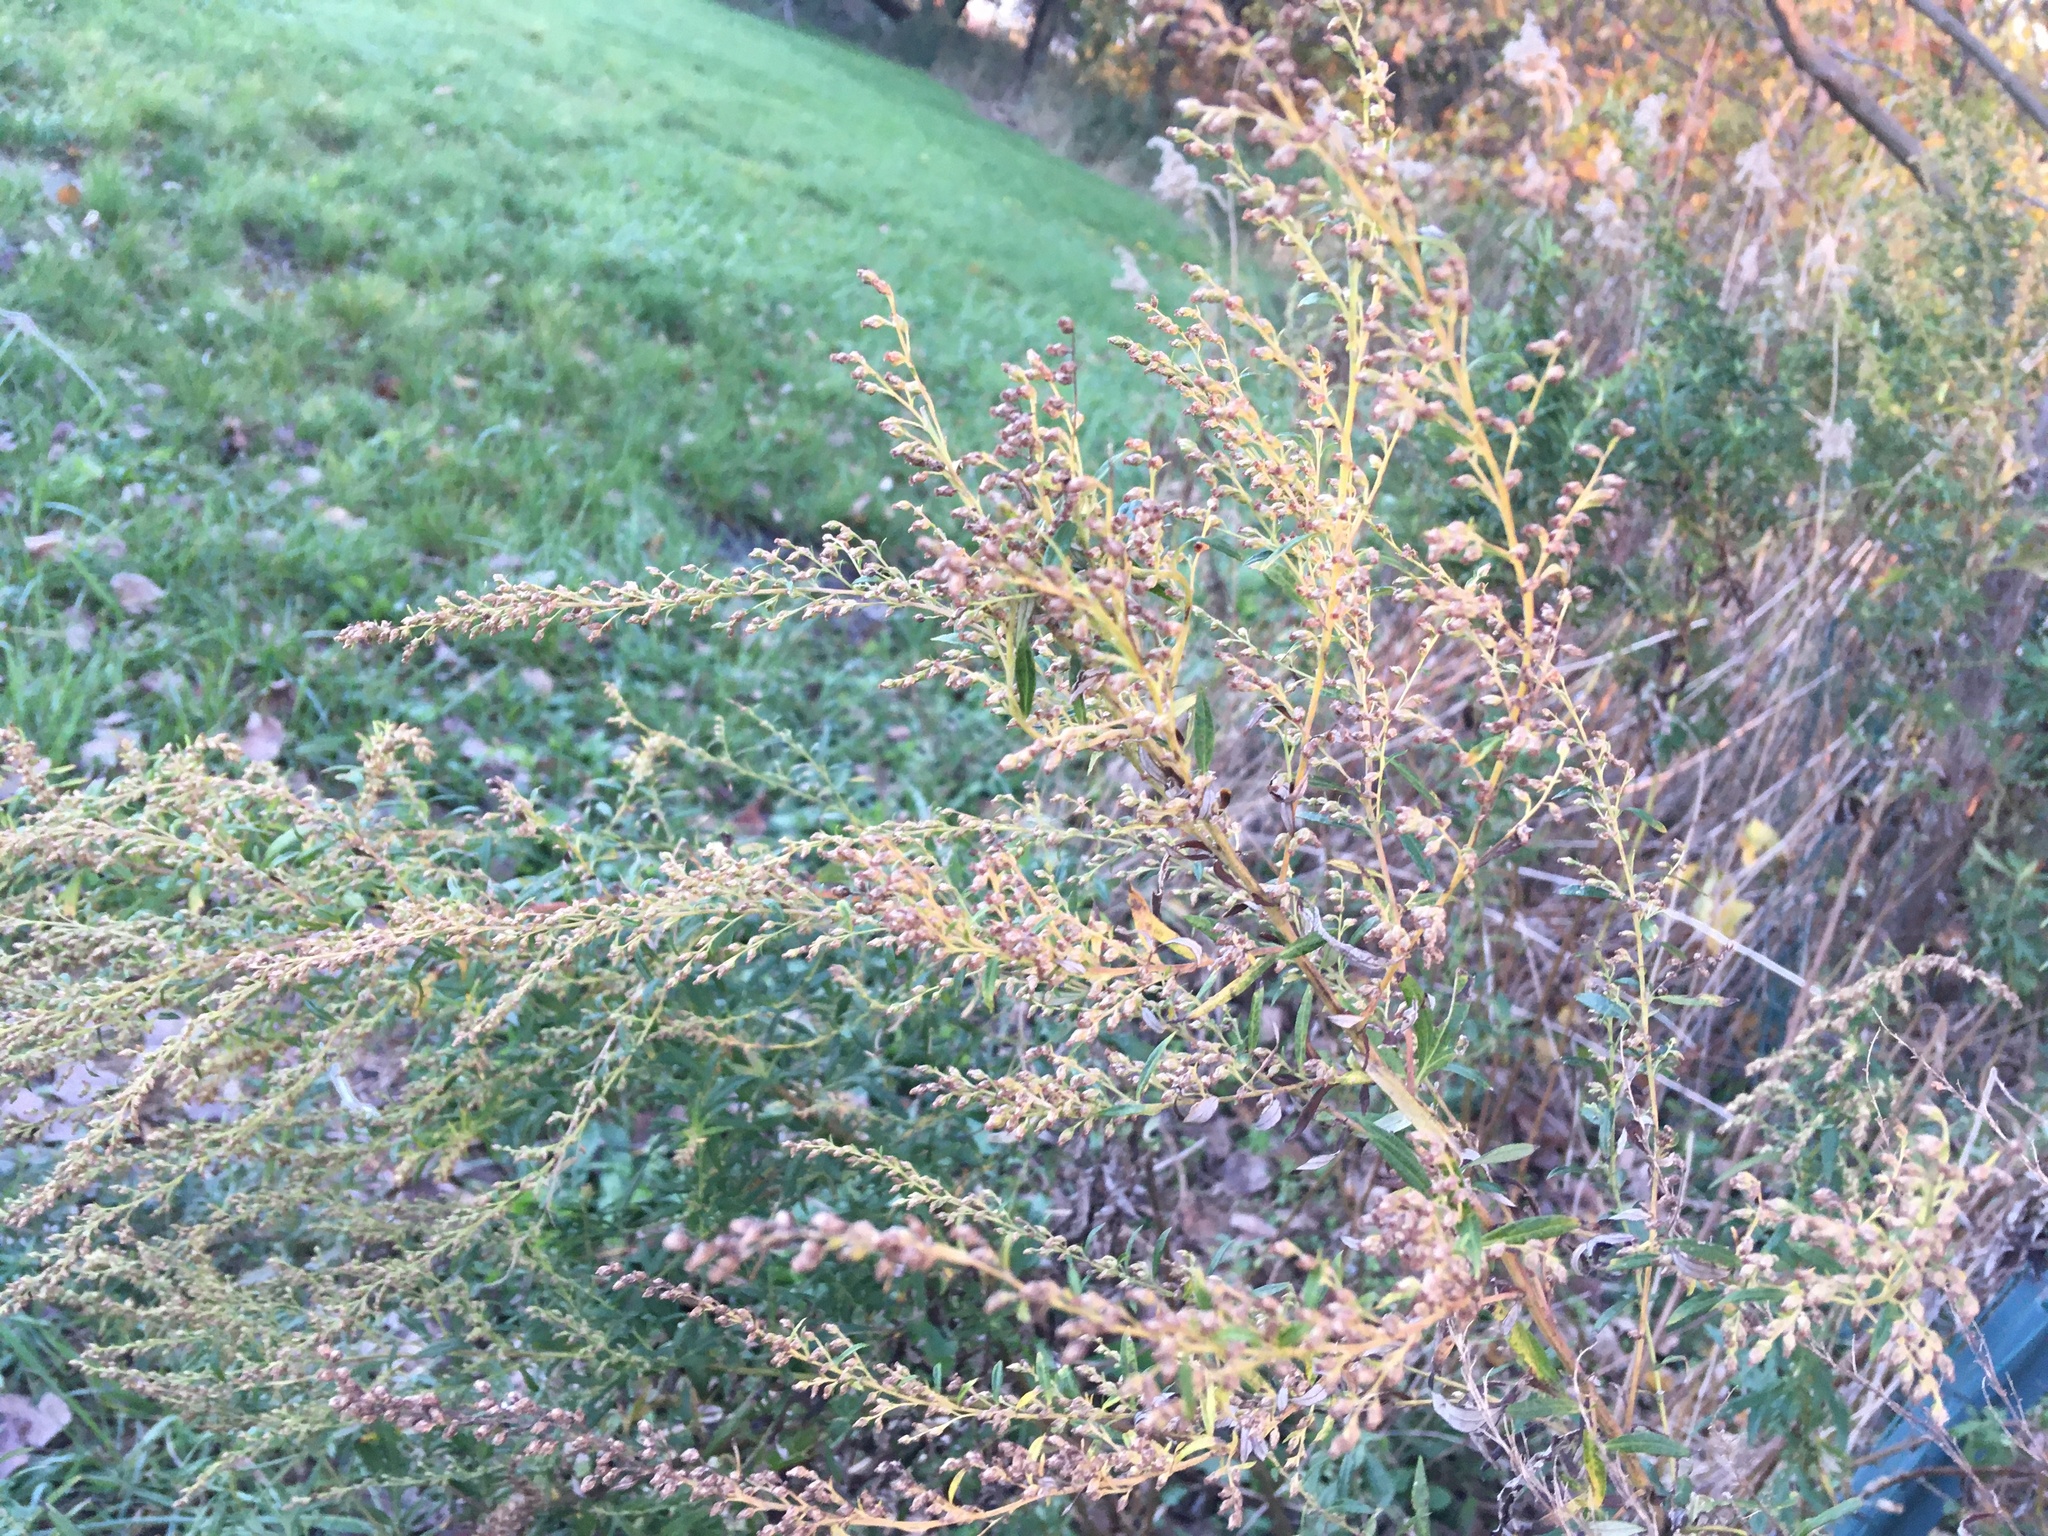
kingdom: Plantae
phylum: Tracheophyta
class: Magnoliopsida
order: Asterales
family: Asteraceae
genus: Artemisia
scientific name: Artemisia vulgaris
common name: Mugwort
